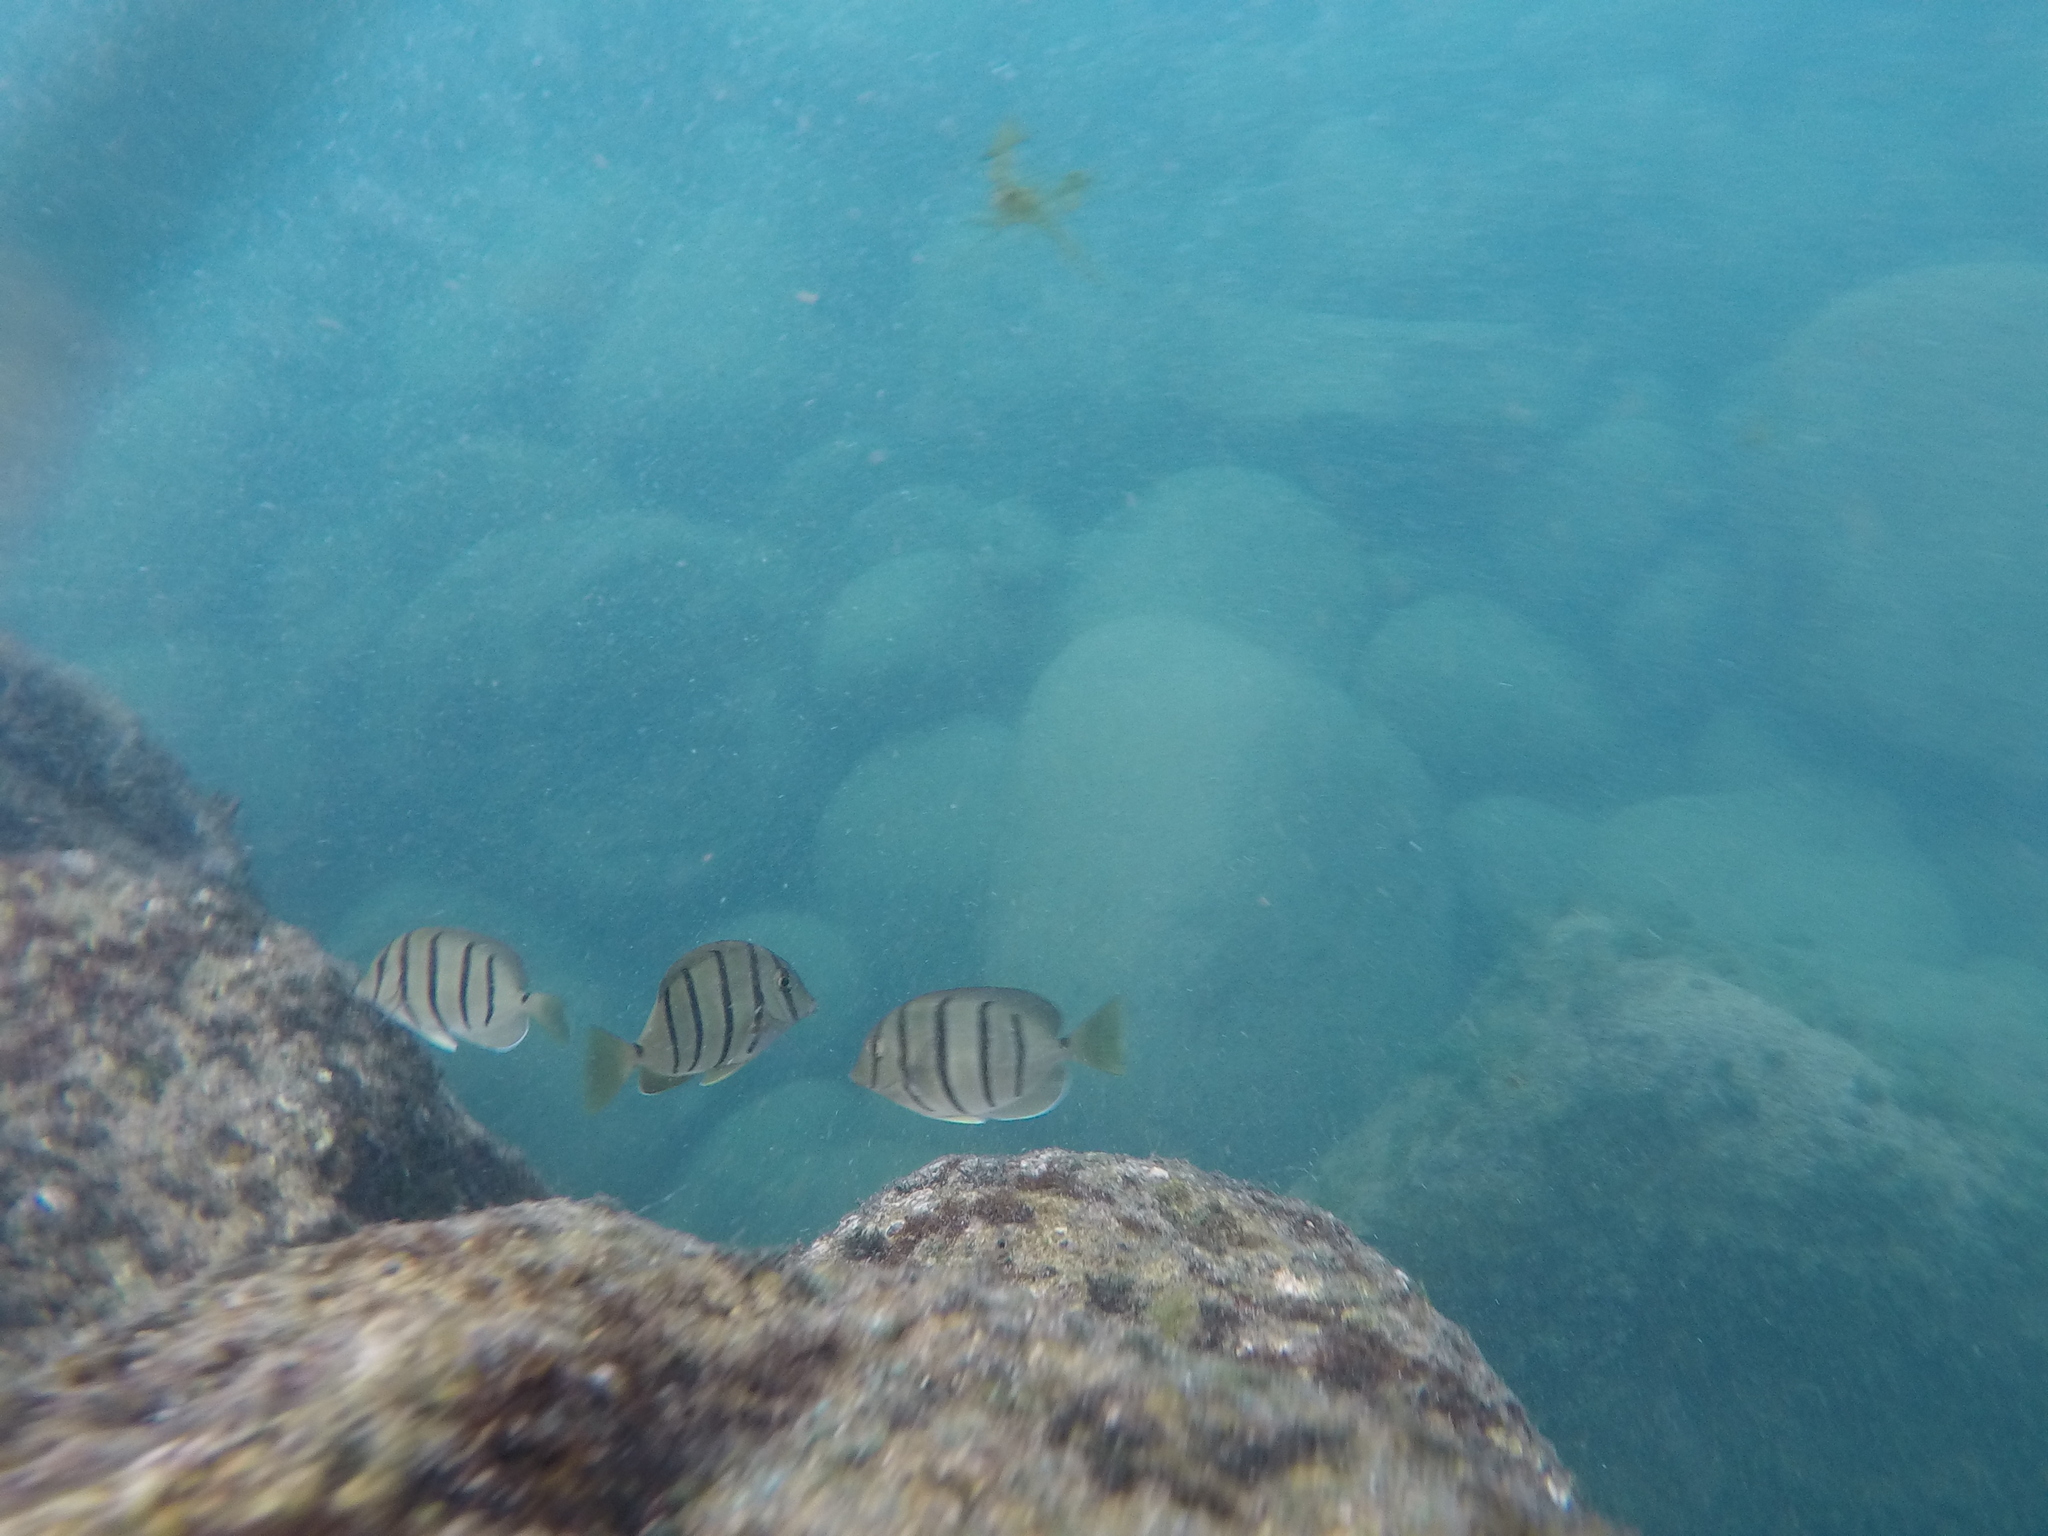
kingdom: Animalia
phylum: Chordata
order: Perciformes
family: Acanthuridae
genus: Acanthurus
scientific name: Acanthurus triostegus
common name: Convict surgeonfish
